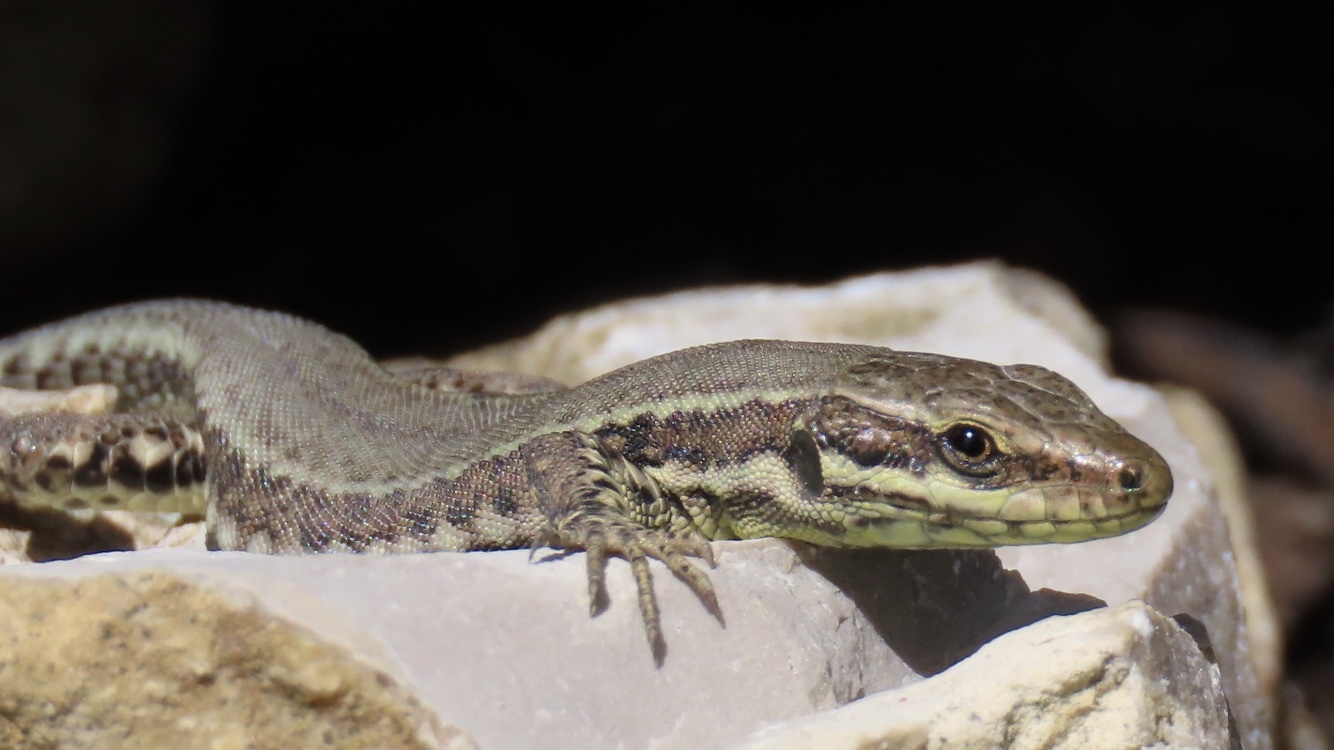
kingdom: Animalia
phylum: Chordata
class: Squamata
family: Lacertidae
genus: Podarcis
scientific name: Podarcis muralis
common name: Common wall lizard
